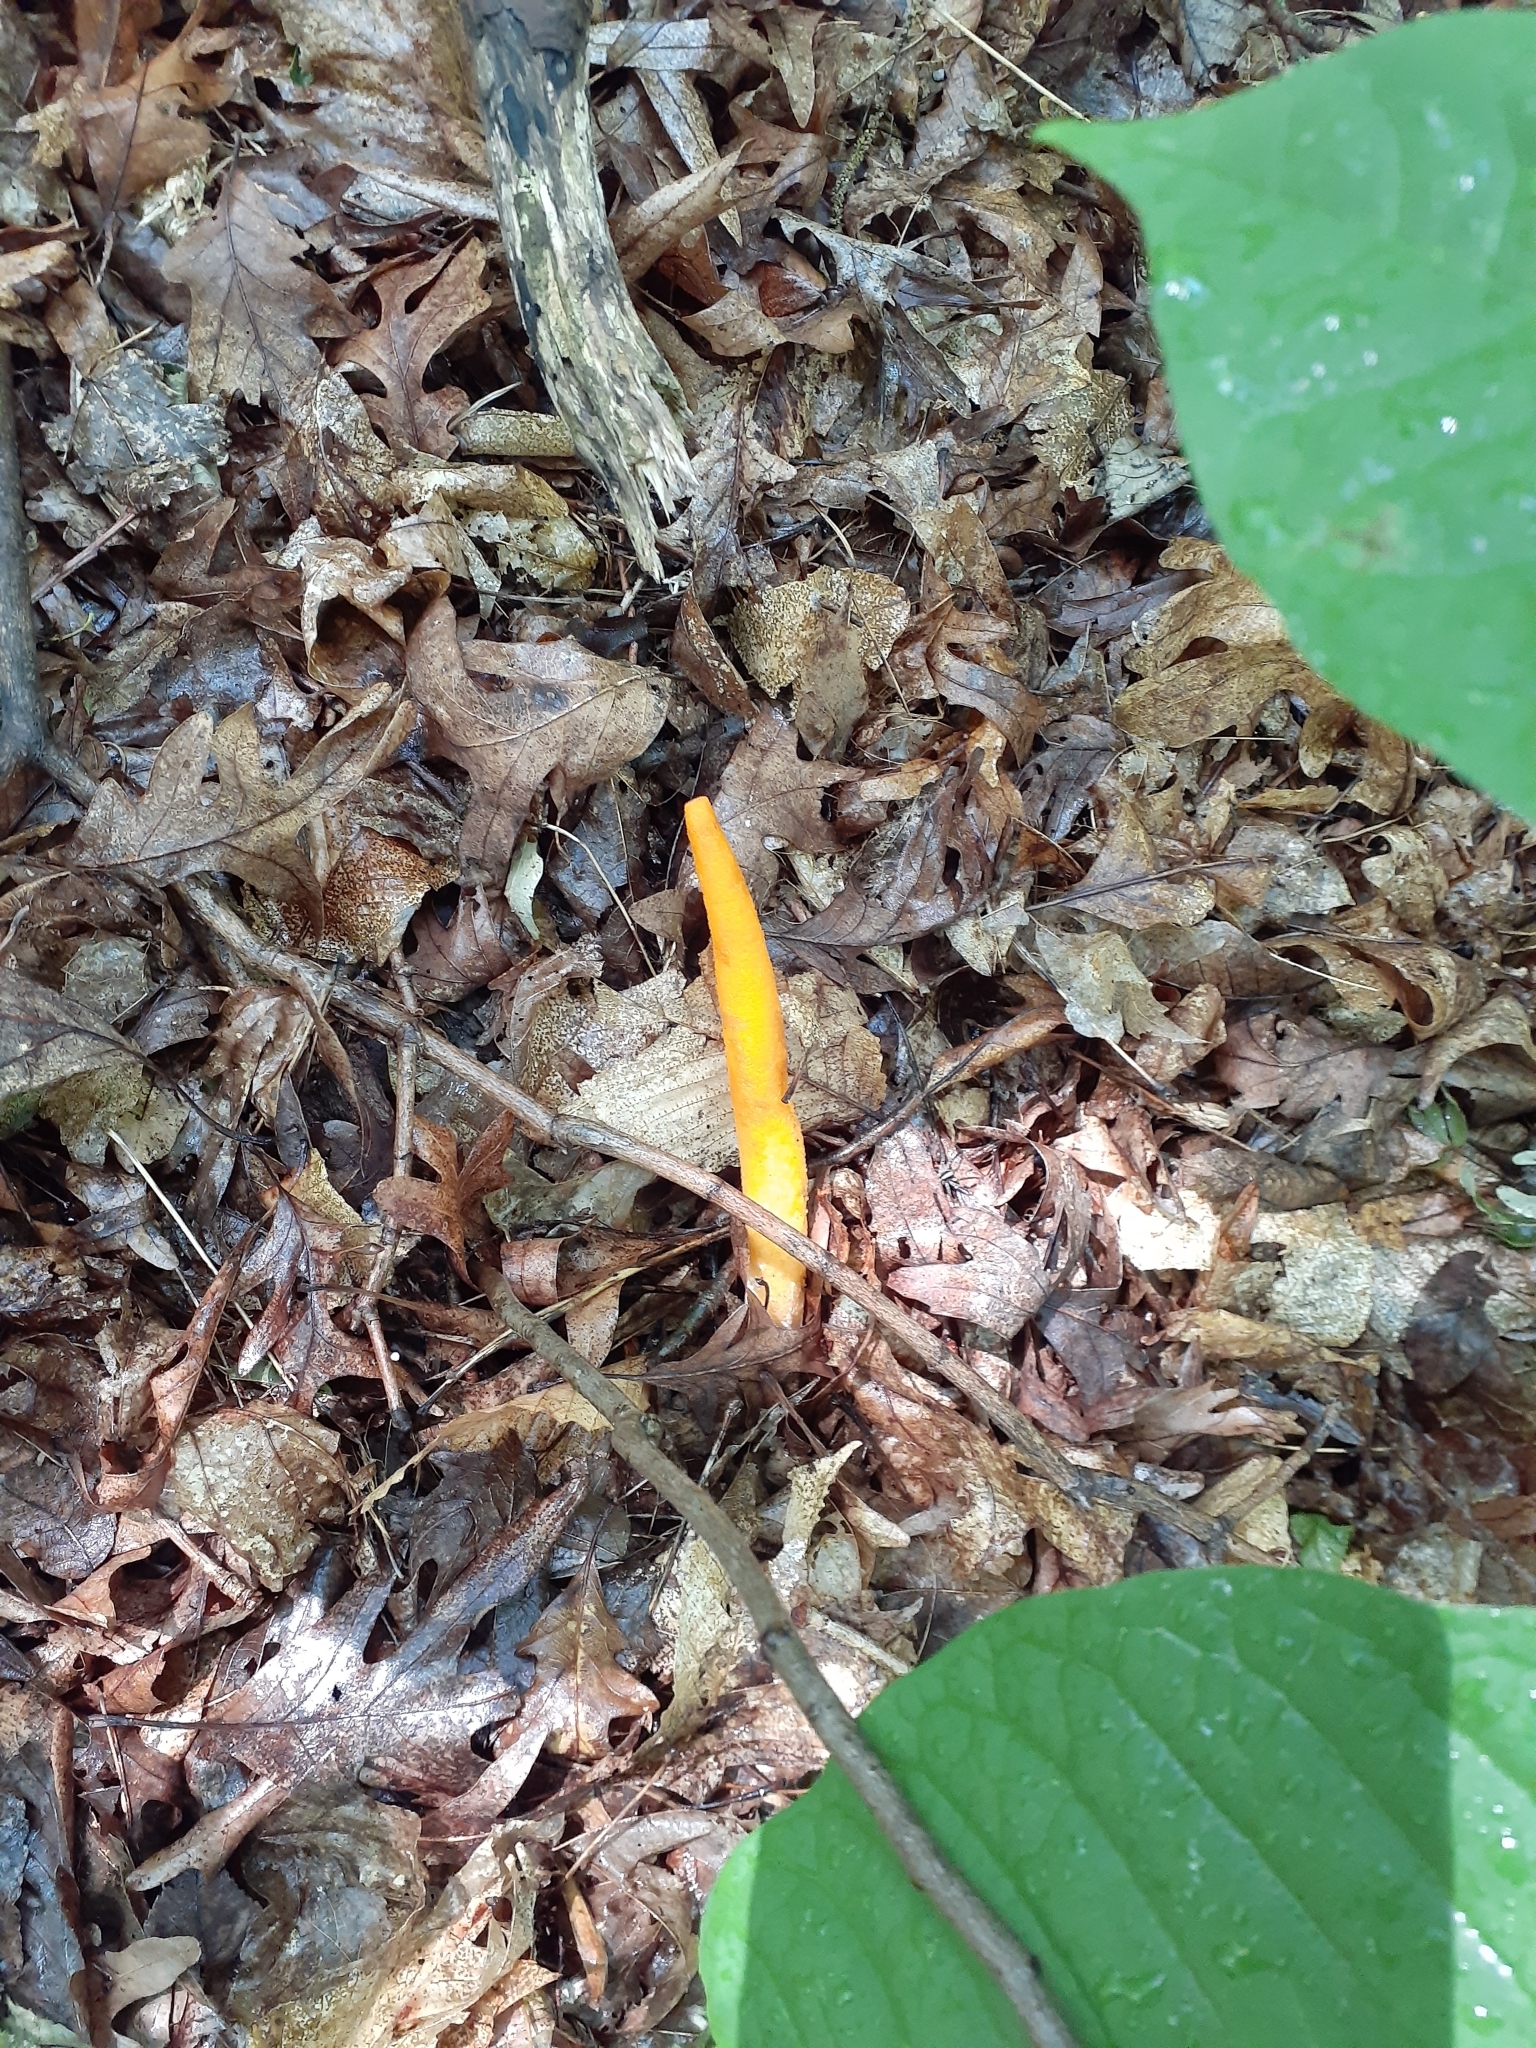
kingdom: Fungi
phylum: Basidiomycota
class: Agaricomycetes
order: Phallales
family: Phallaceae
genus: Mutinus
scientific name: Mutinus elegans
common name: Devil's dipstick
